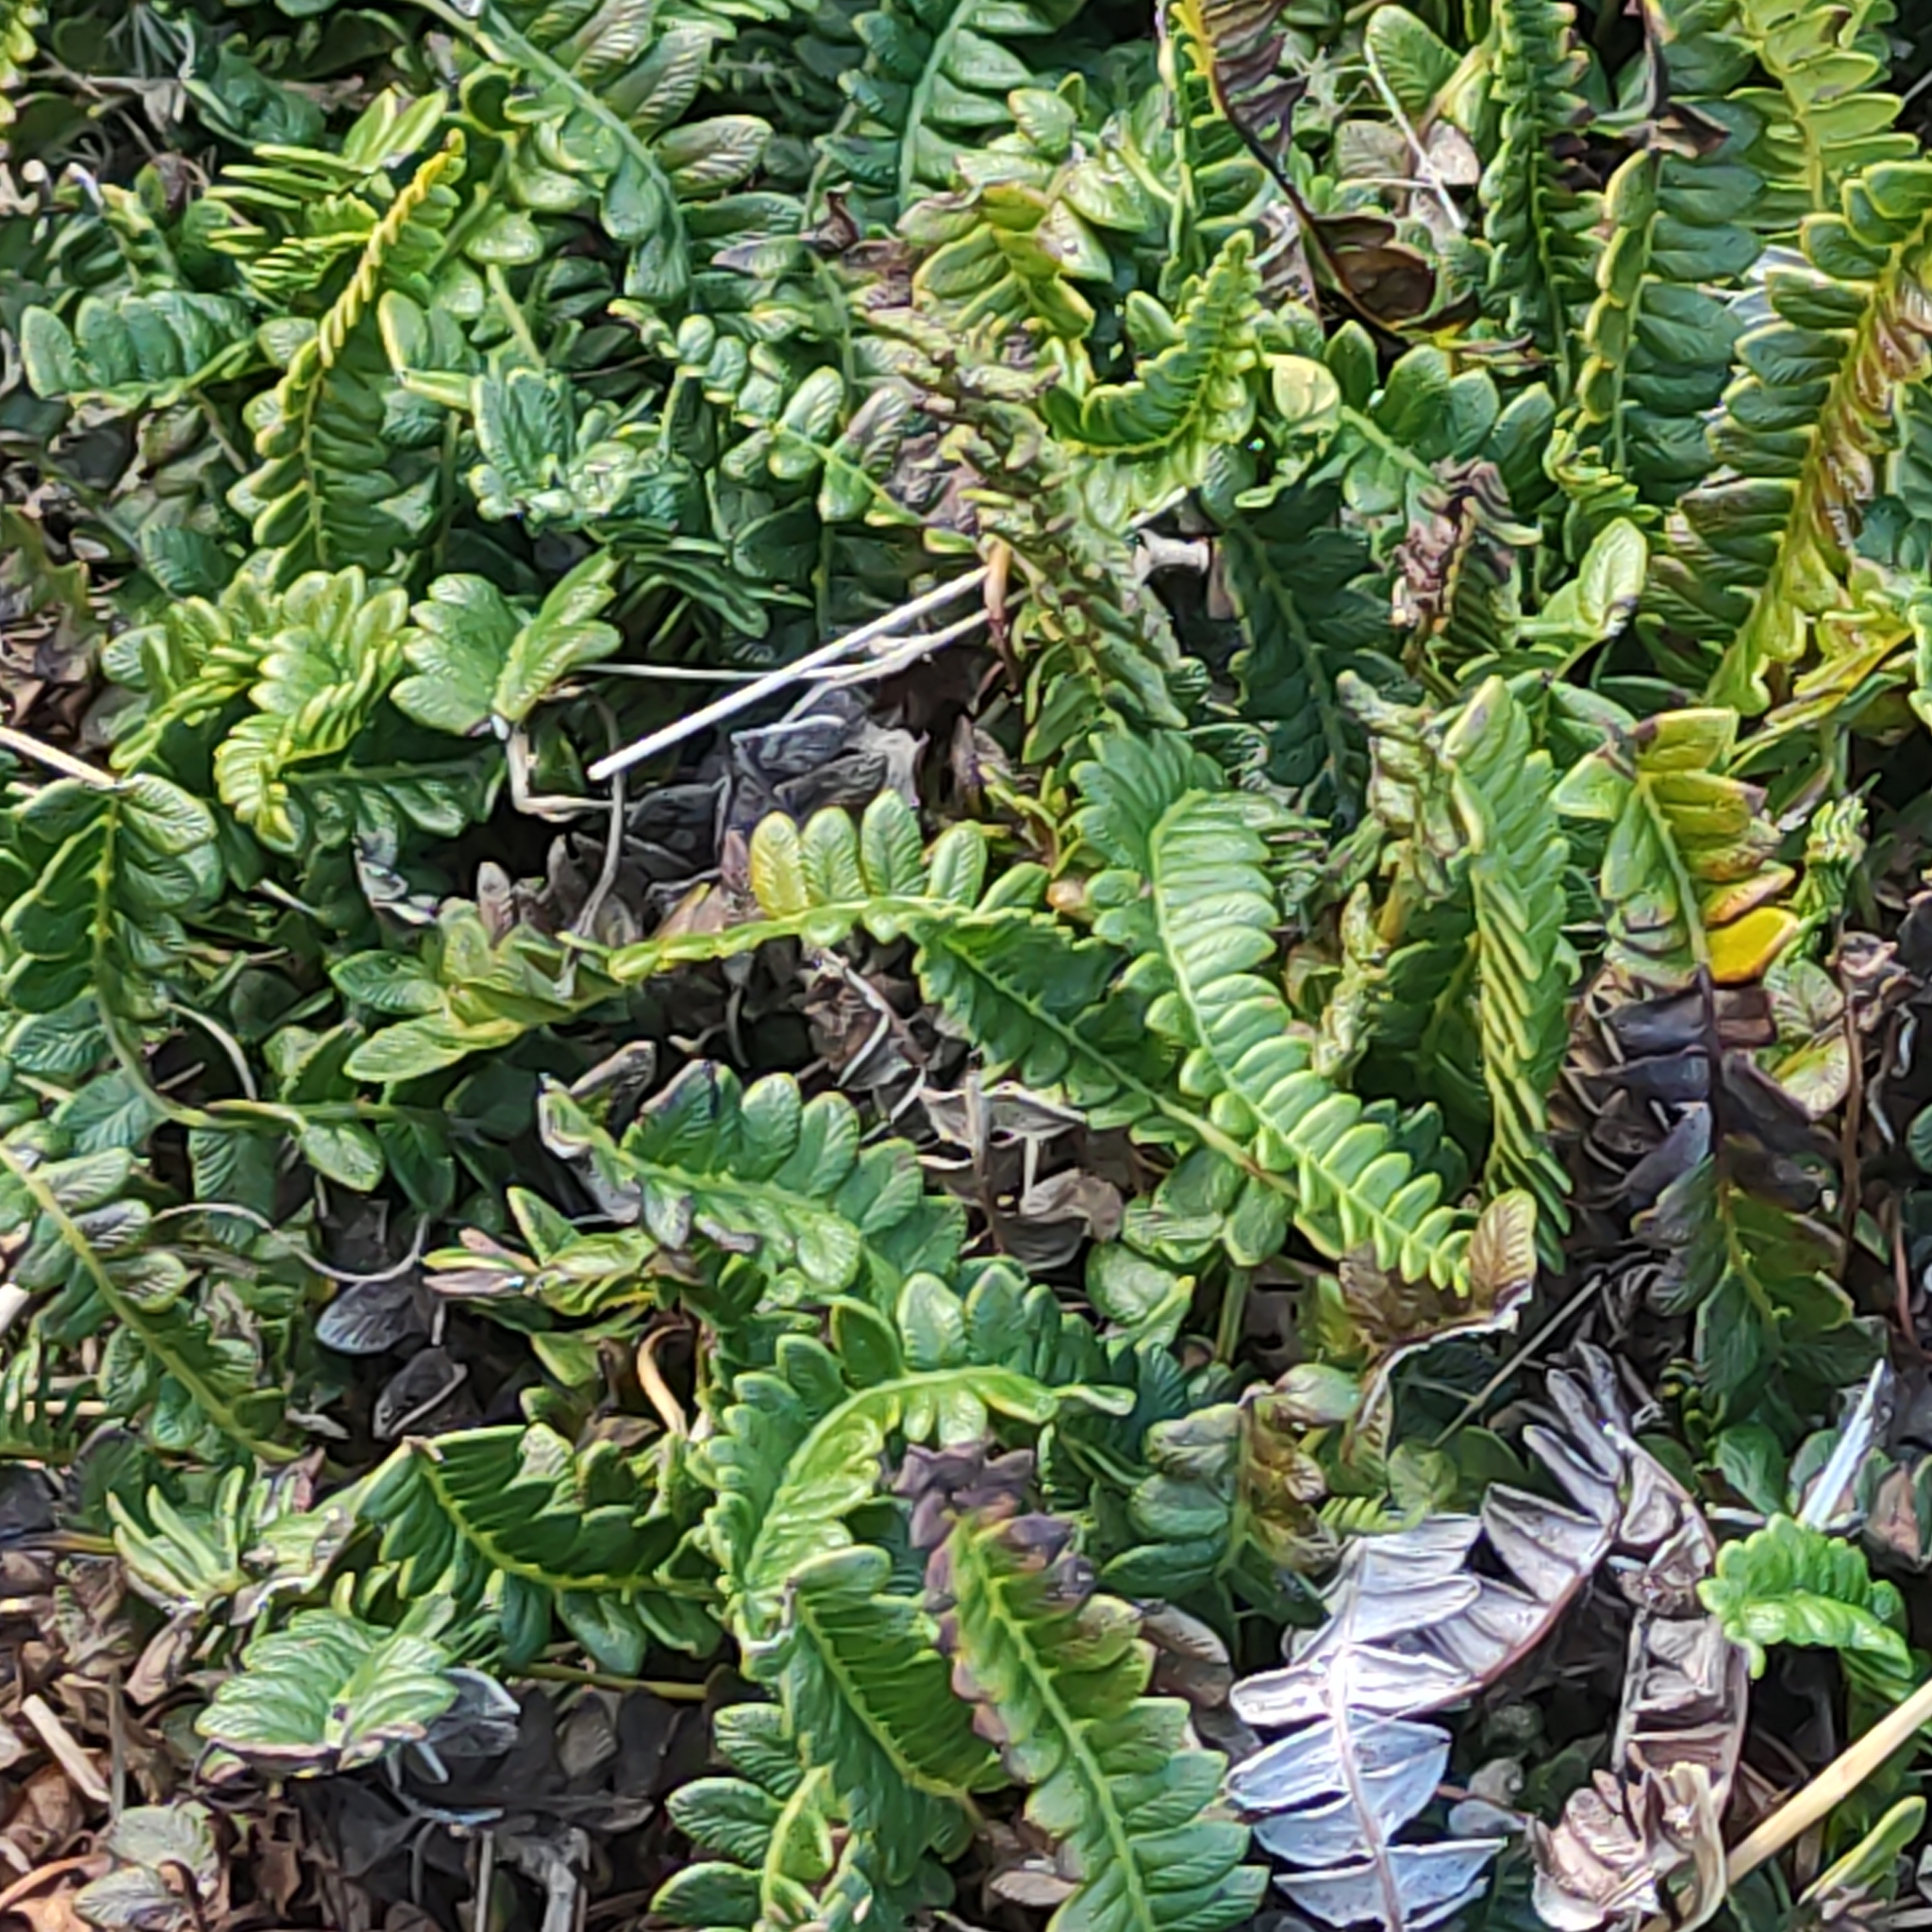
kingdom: Plantae
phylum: Tracheophyta
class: Polypodiopsida
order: Polypodiales
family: Blechnaceae
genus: Austroblechnum
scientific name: Austroblechnum penna-marina
